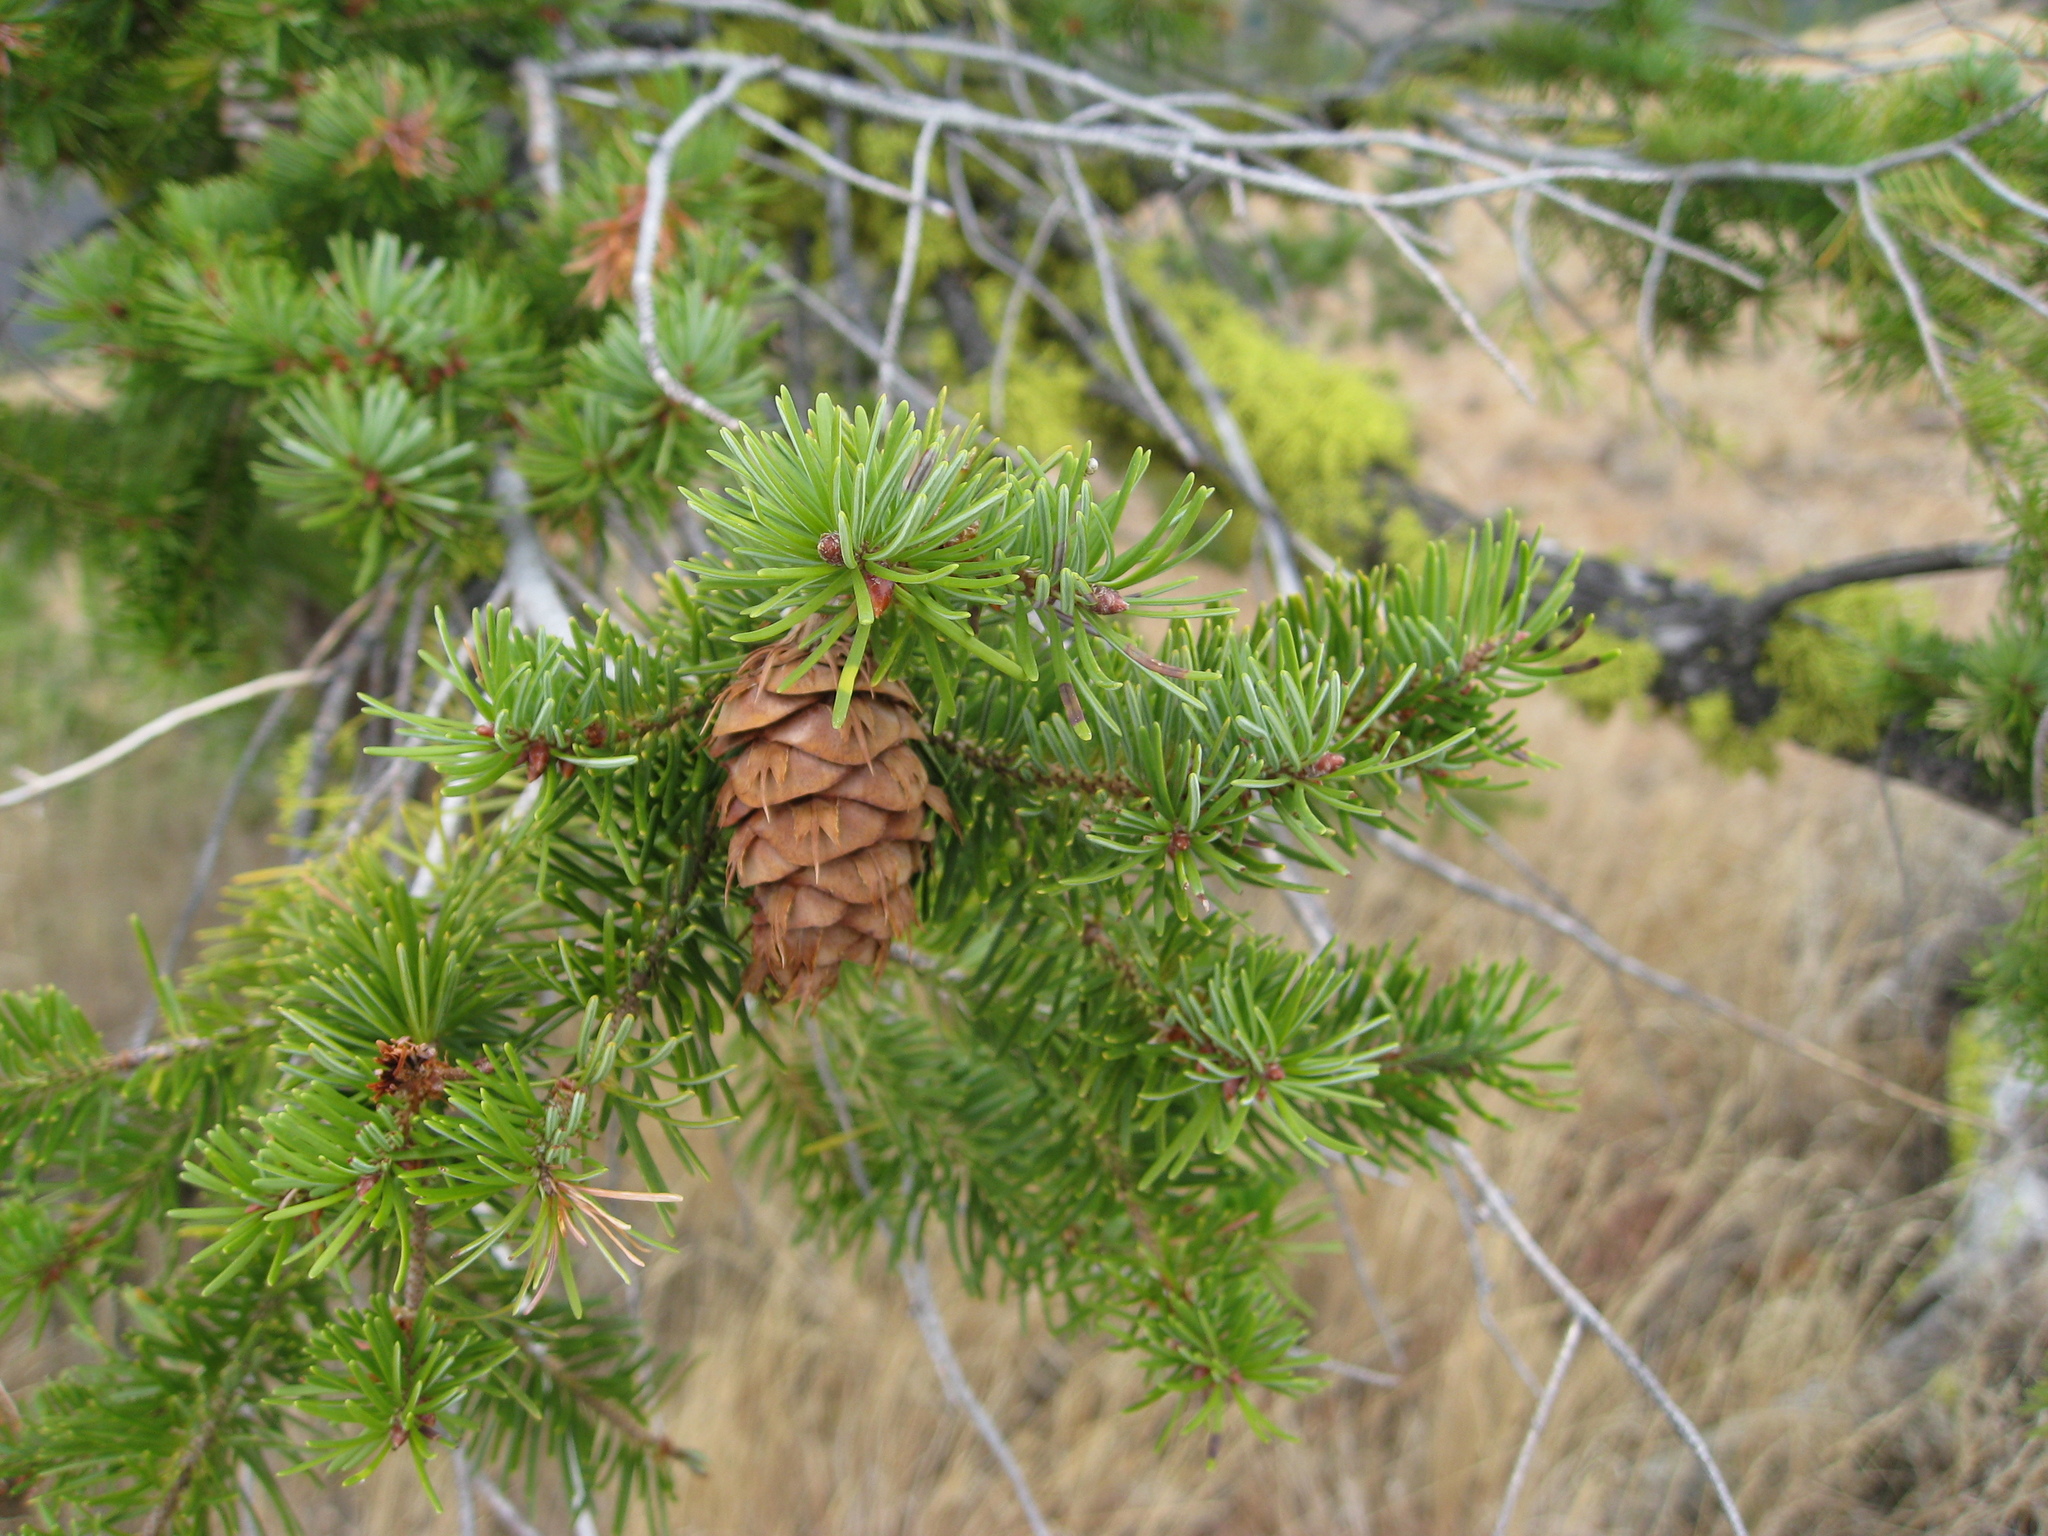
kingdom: Plantae
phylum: Tracheophyta
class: Pinopsida
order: Pinales
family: Pinaceae
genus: Pseudotsuga
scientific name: Pseudotsuga menziesii
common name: Douglas fir
